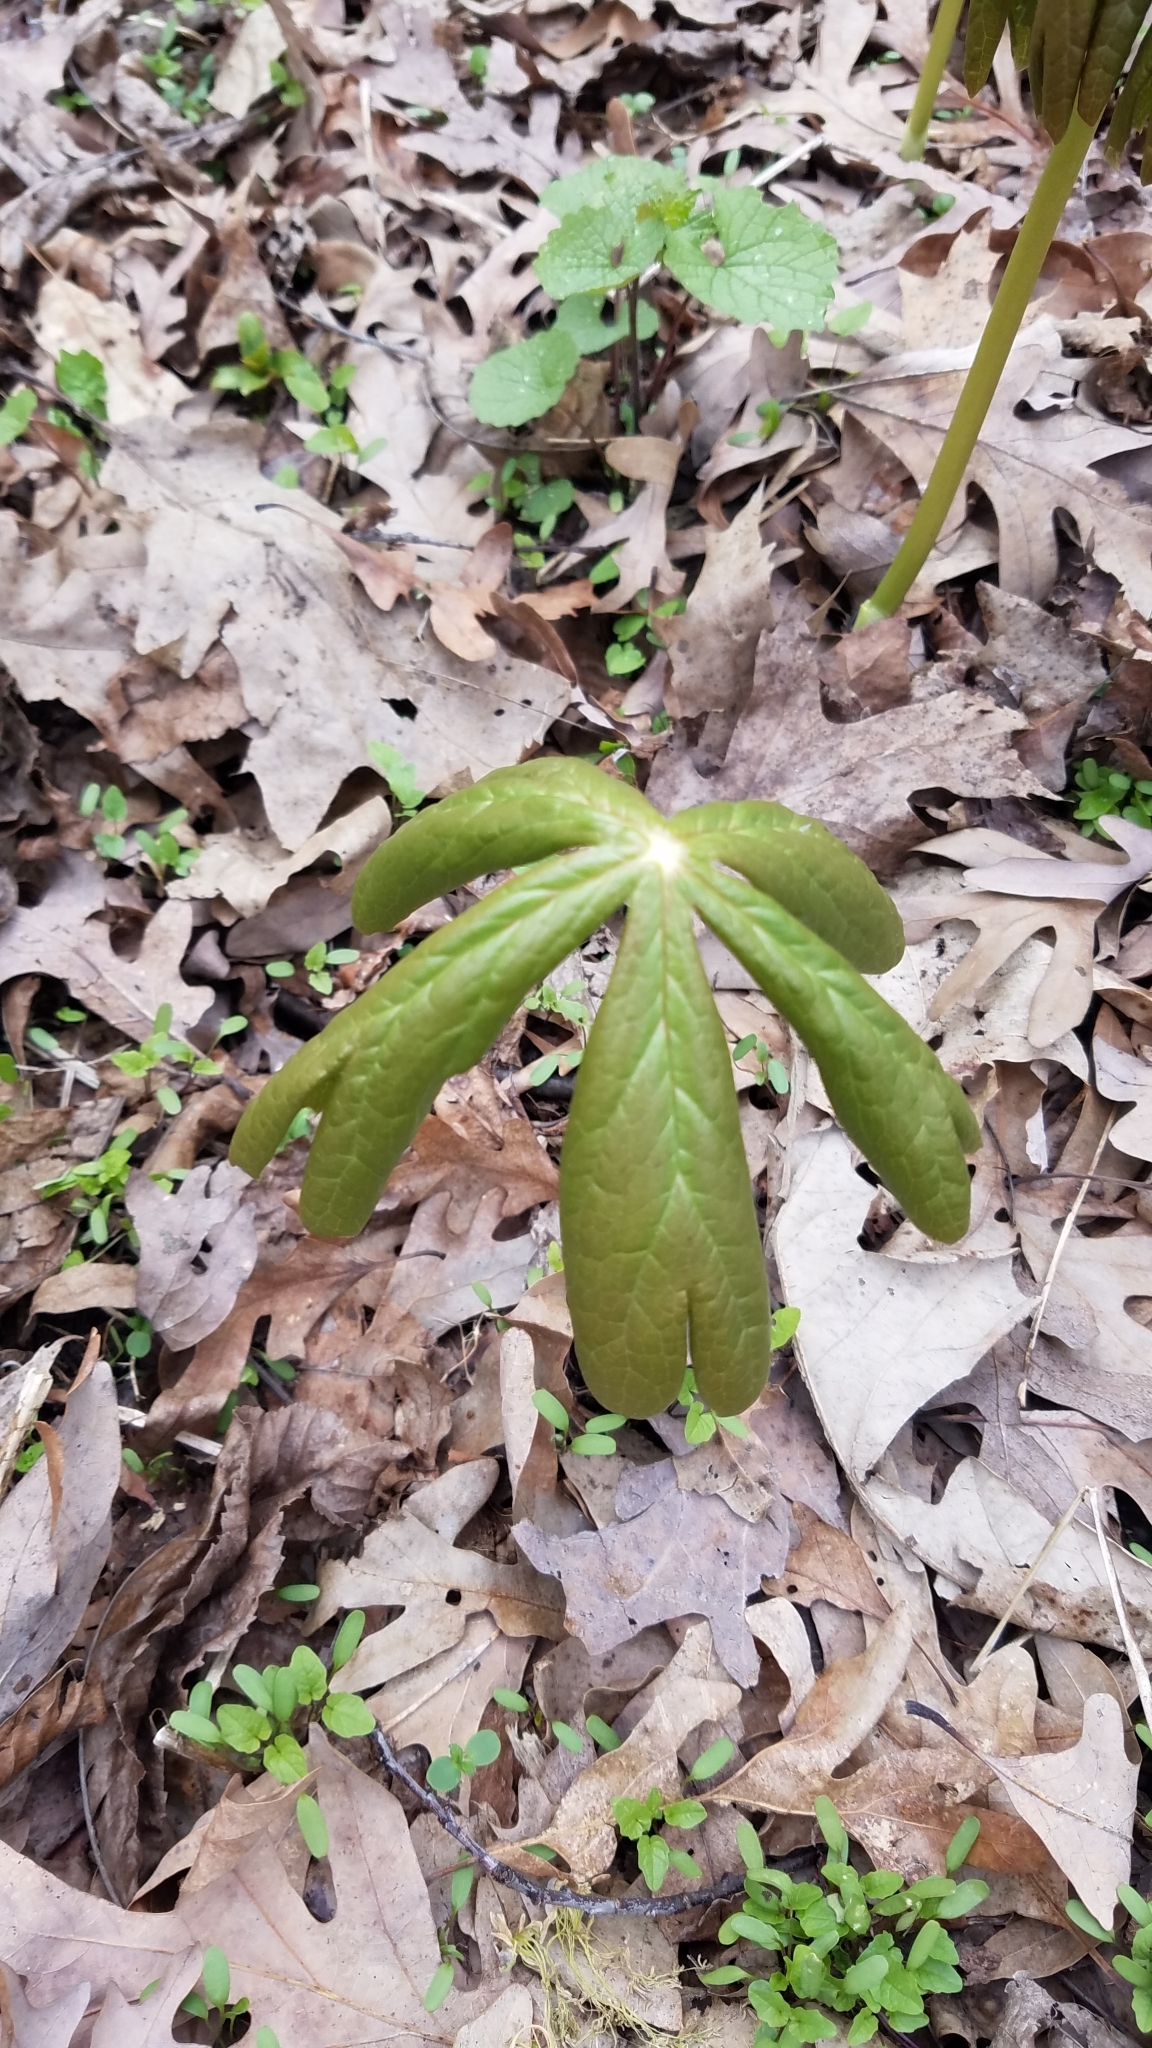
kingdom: Plantae
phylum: Tracheophyta
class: Magnoliopsida
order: Ranunculales
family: Berberidaceae
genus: Podophyllum
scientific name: Podophyllum peltatum
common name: Wild mandrake
